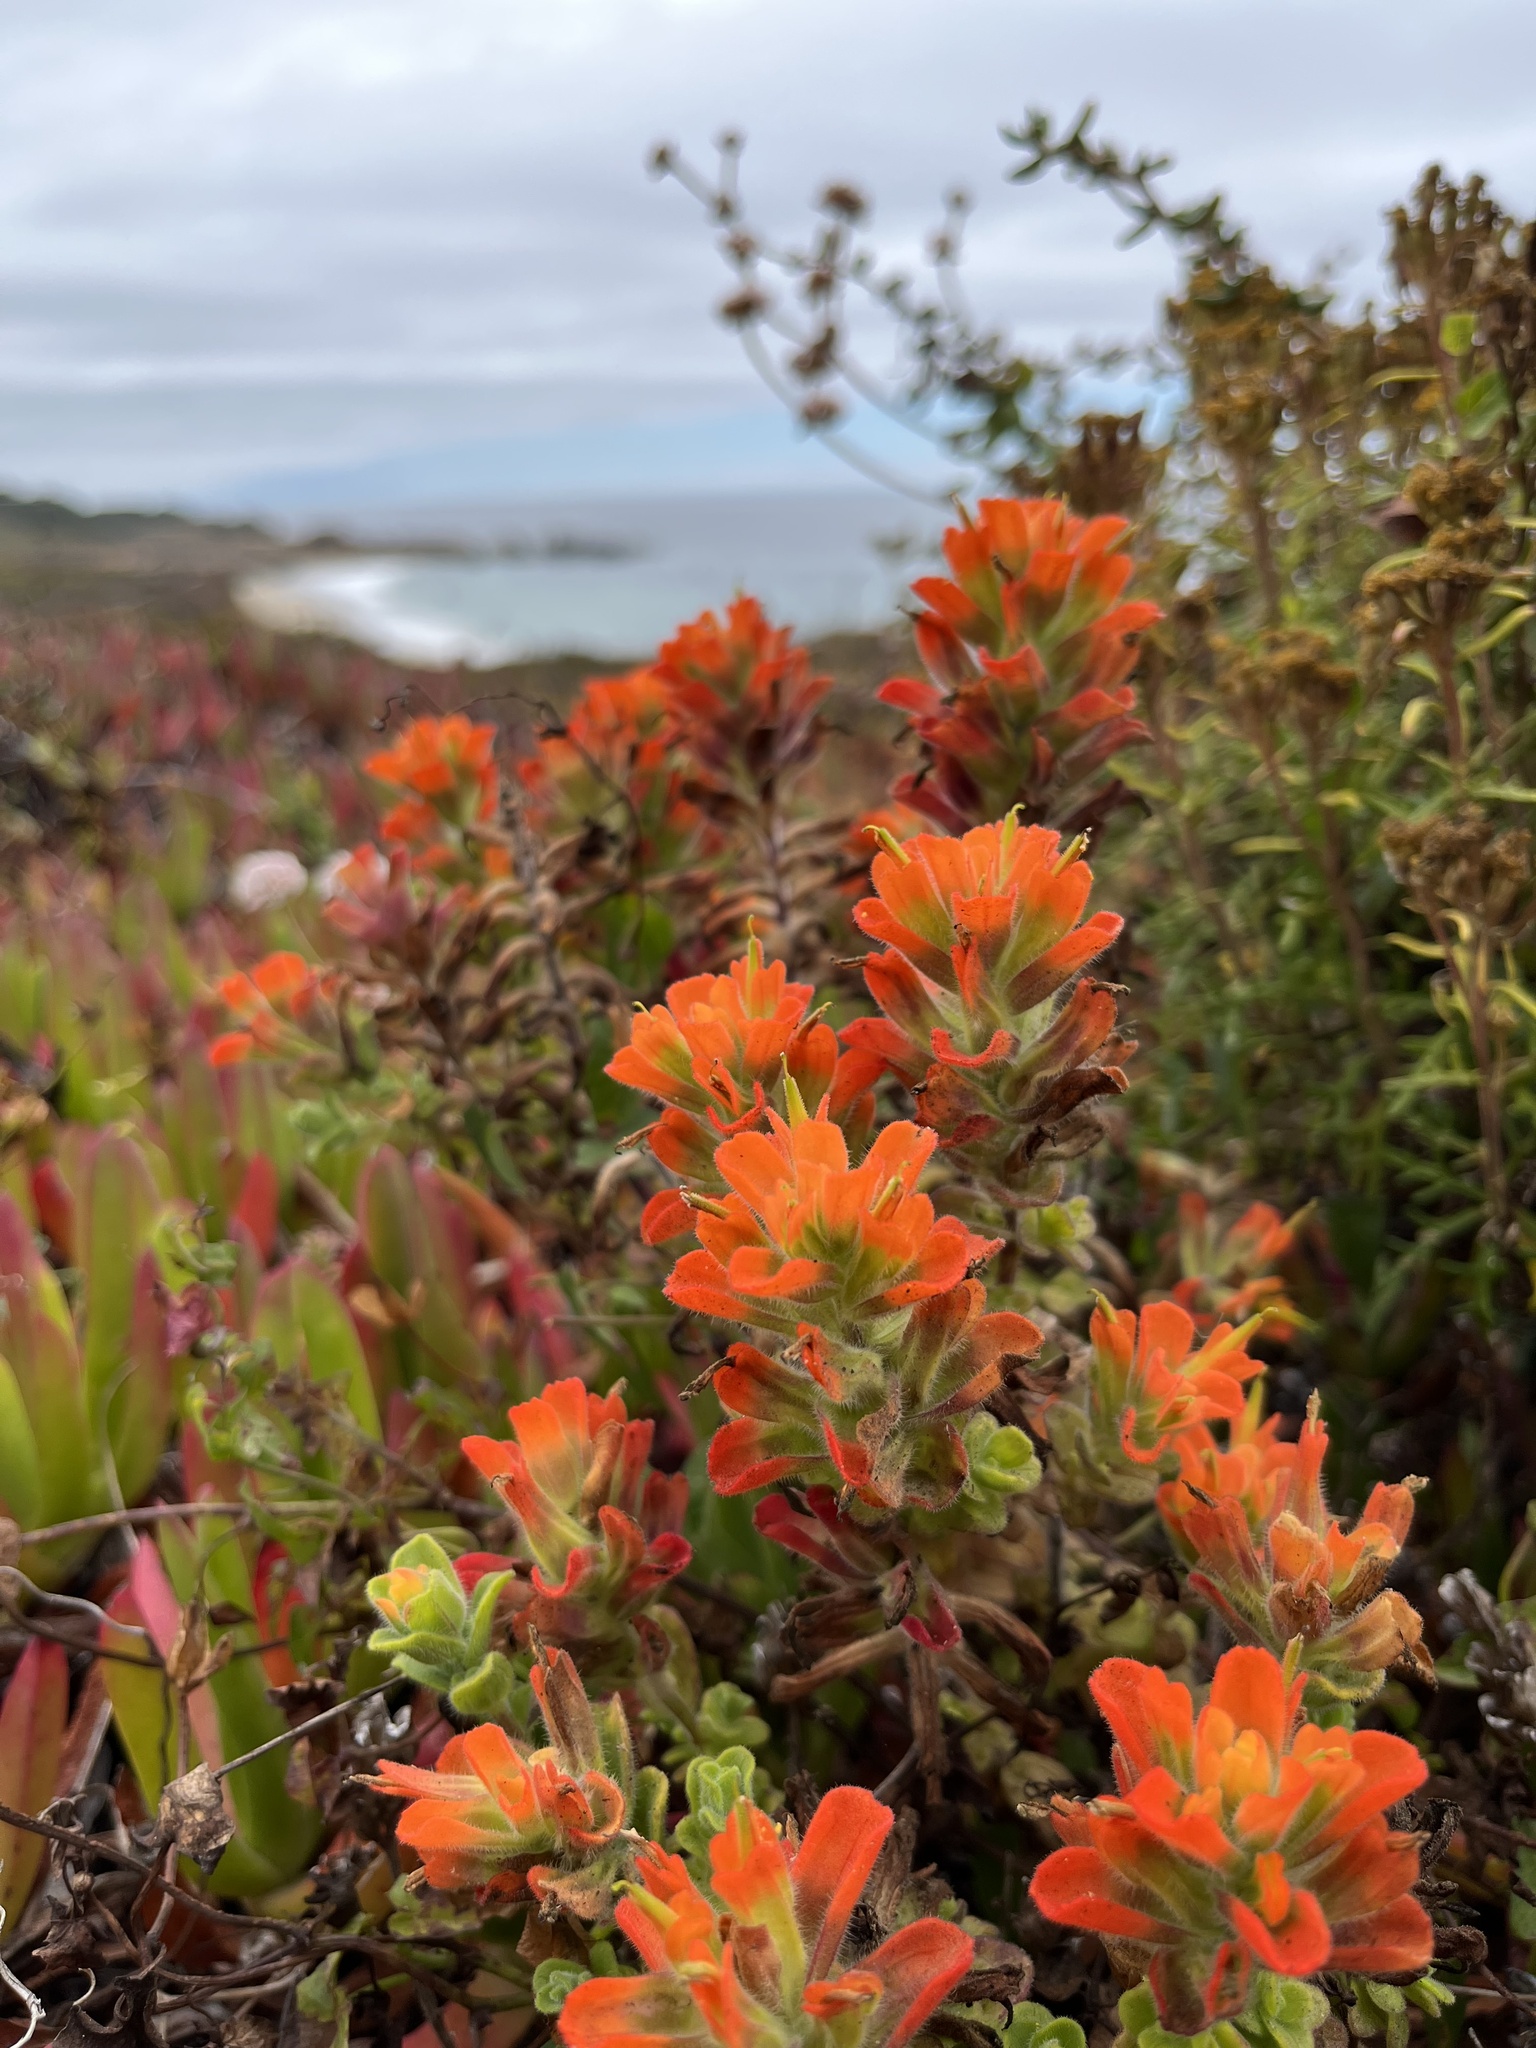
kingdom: Plantae
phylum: Tracheophyta
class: Magnoliopsida
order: Lamiales
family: Orobanchaceae
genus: Castilleja
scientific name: Castilleja latifolia
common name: Monterey indian paintbrush
